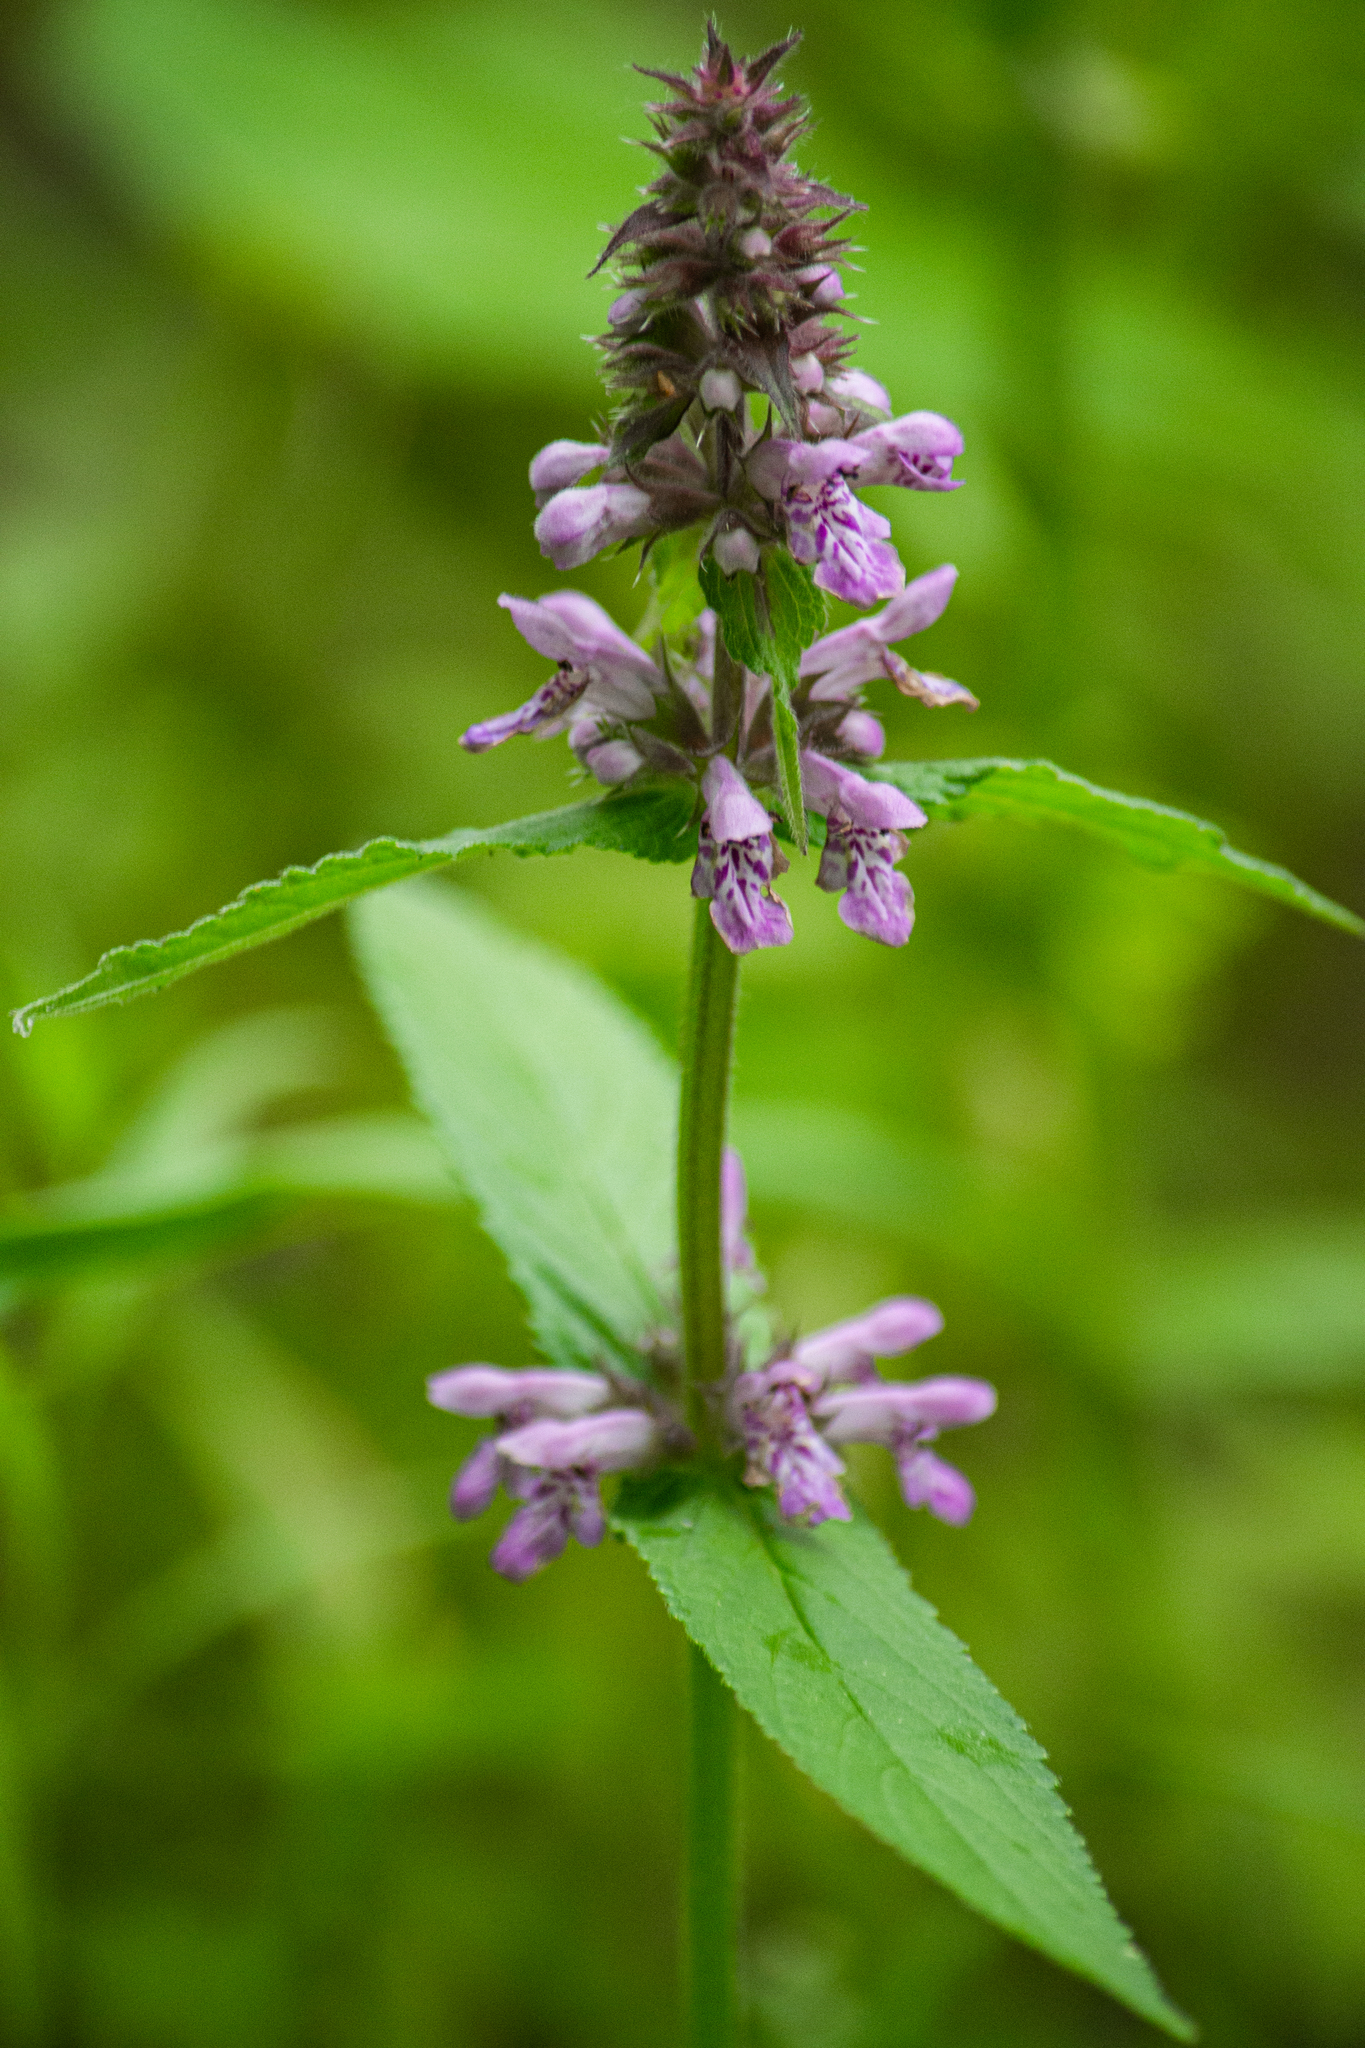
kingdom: Plantae
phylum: Tracheophyta
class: Magnoliopsida
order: Lamiales
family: Lamiaceae
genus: Stachys
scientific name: Stachys palustris
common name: Marsh woundwort
